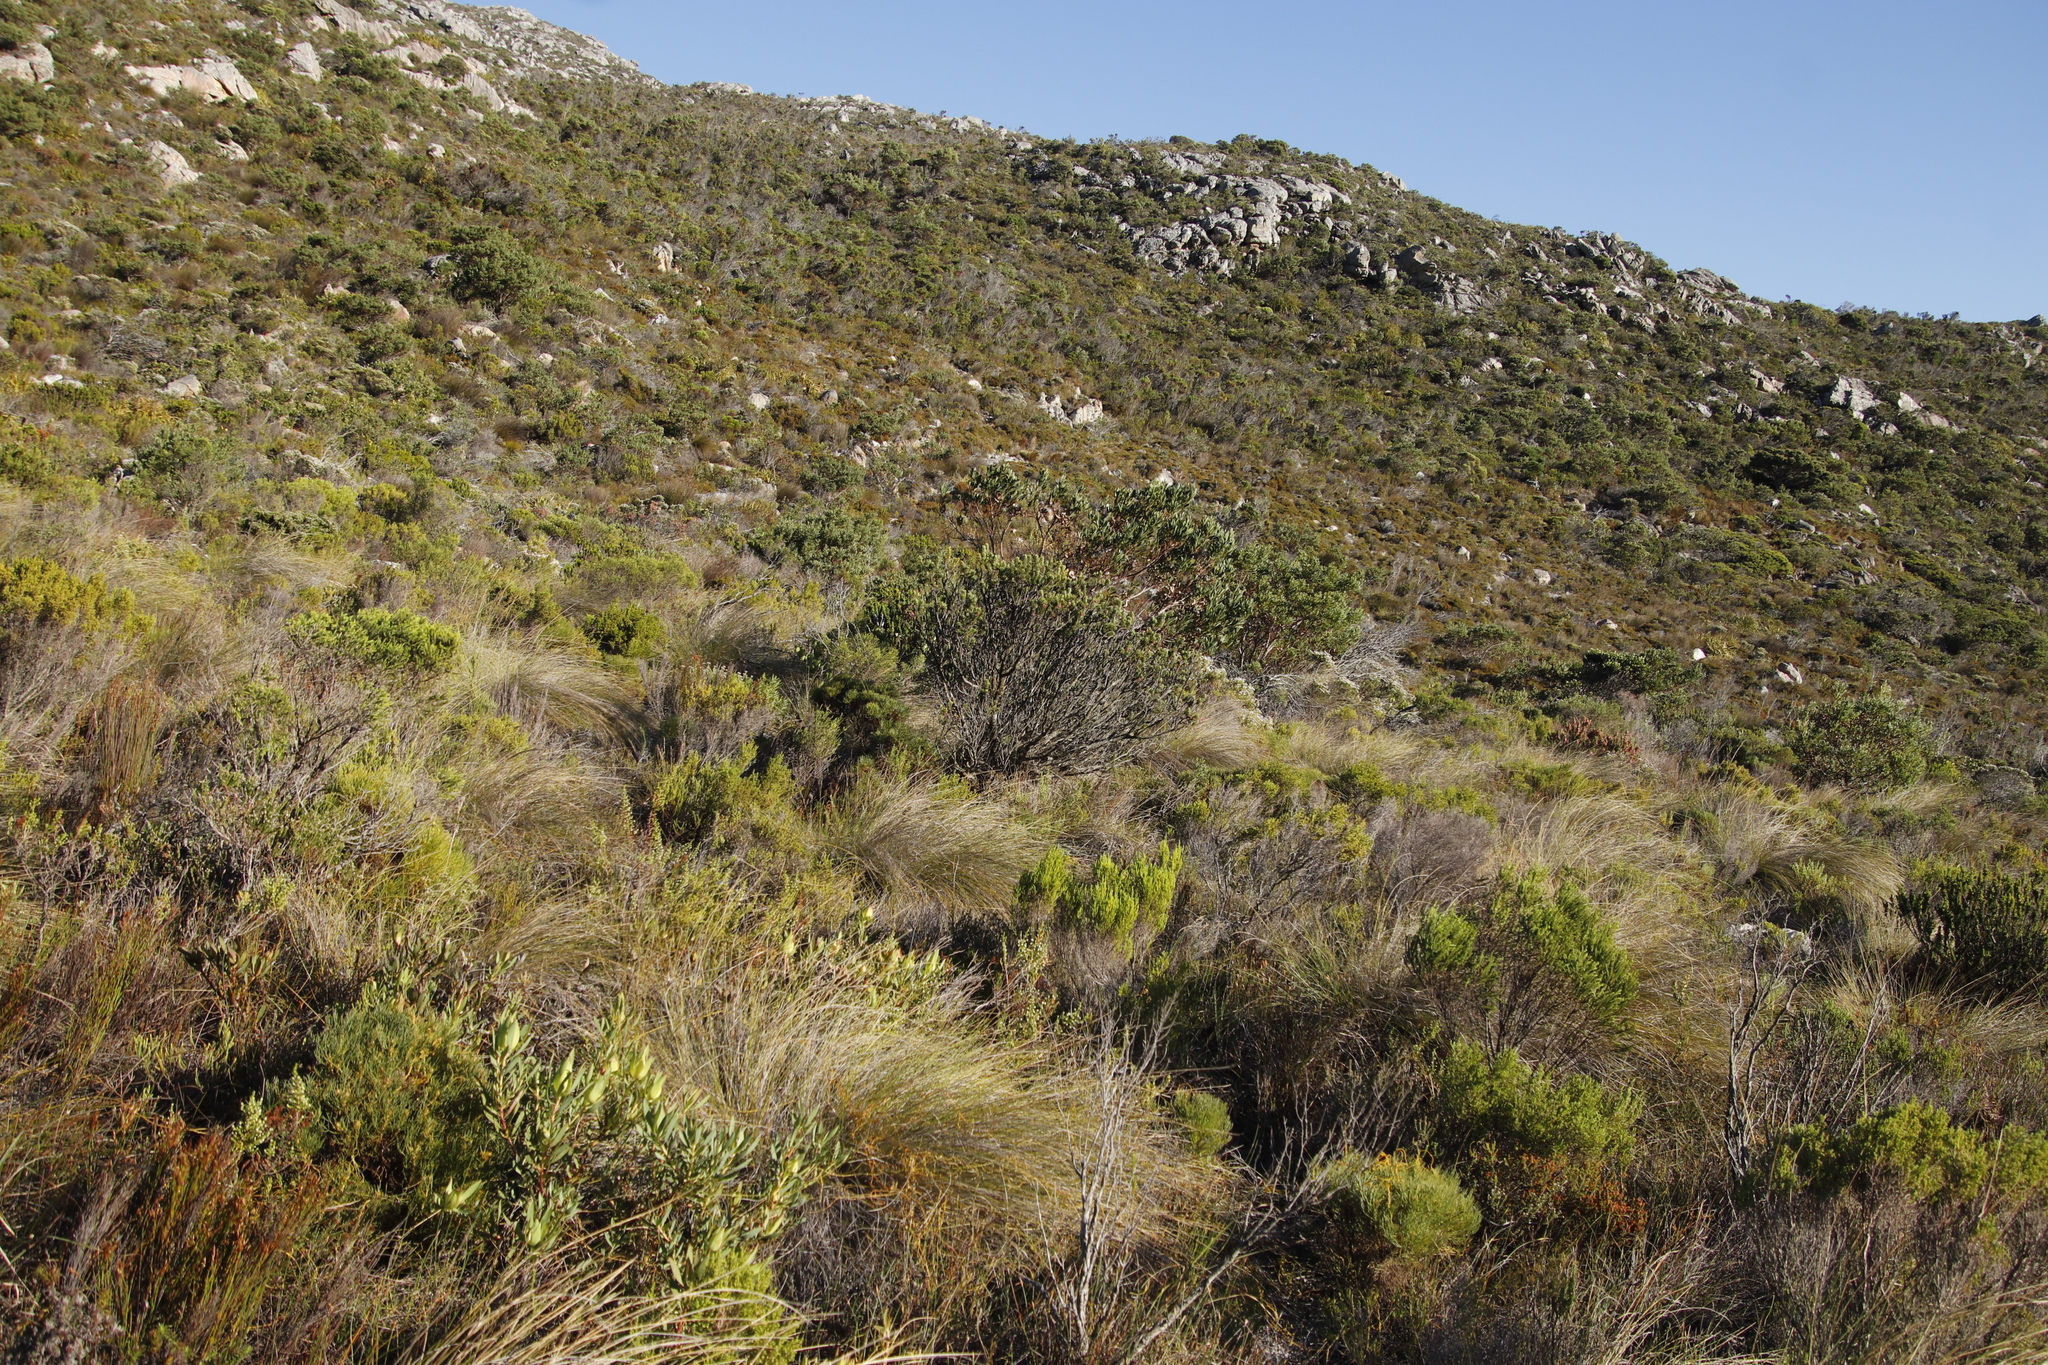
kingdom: Plantae
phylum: Tracheophyta
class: Magnoliopsida
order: Proteales
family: Proteaceae
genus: Leucospermum
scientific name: Leucospermum conocarpodendron
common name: Tree pincushion
